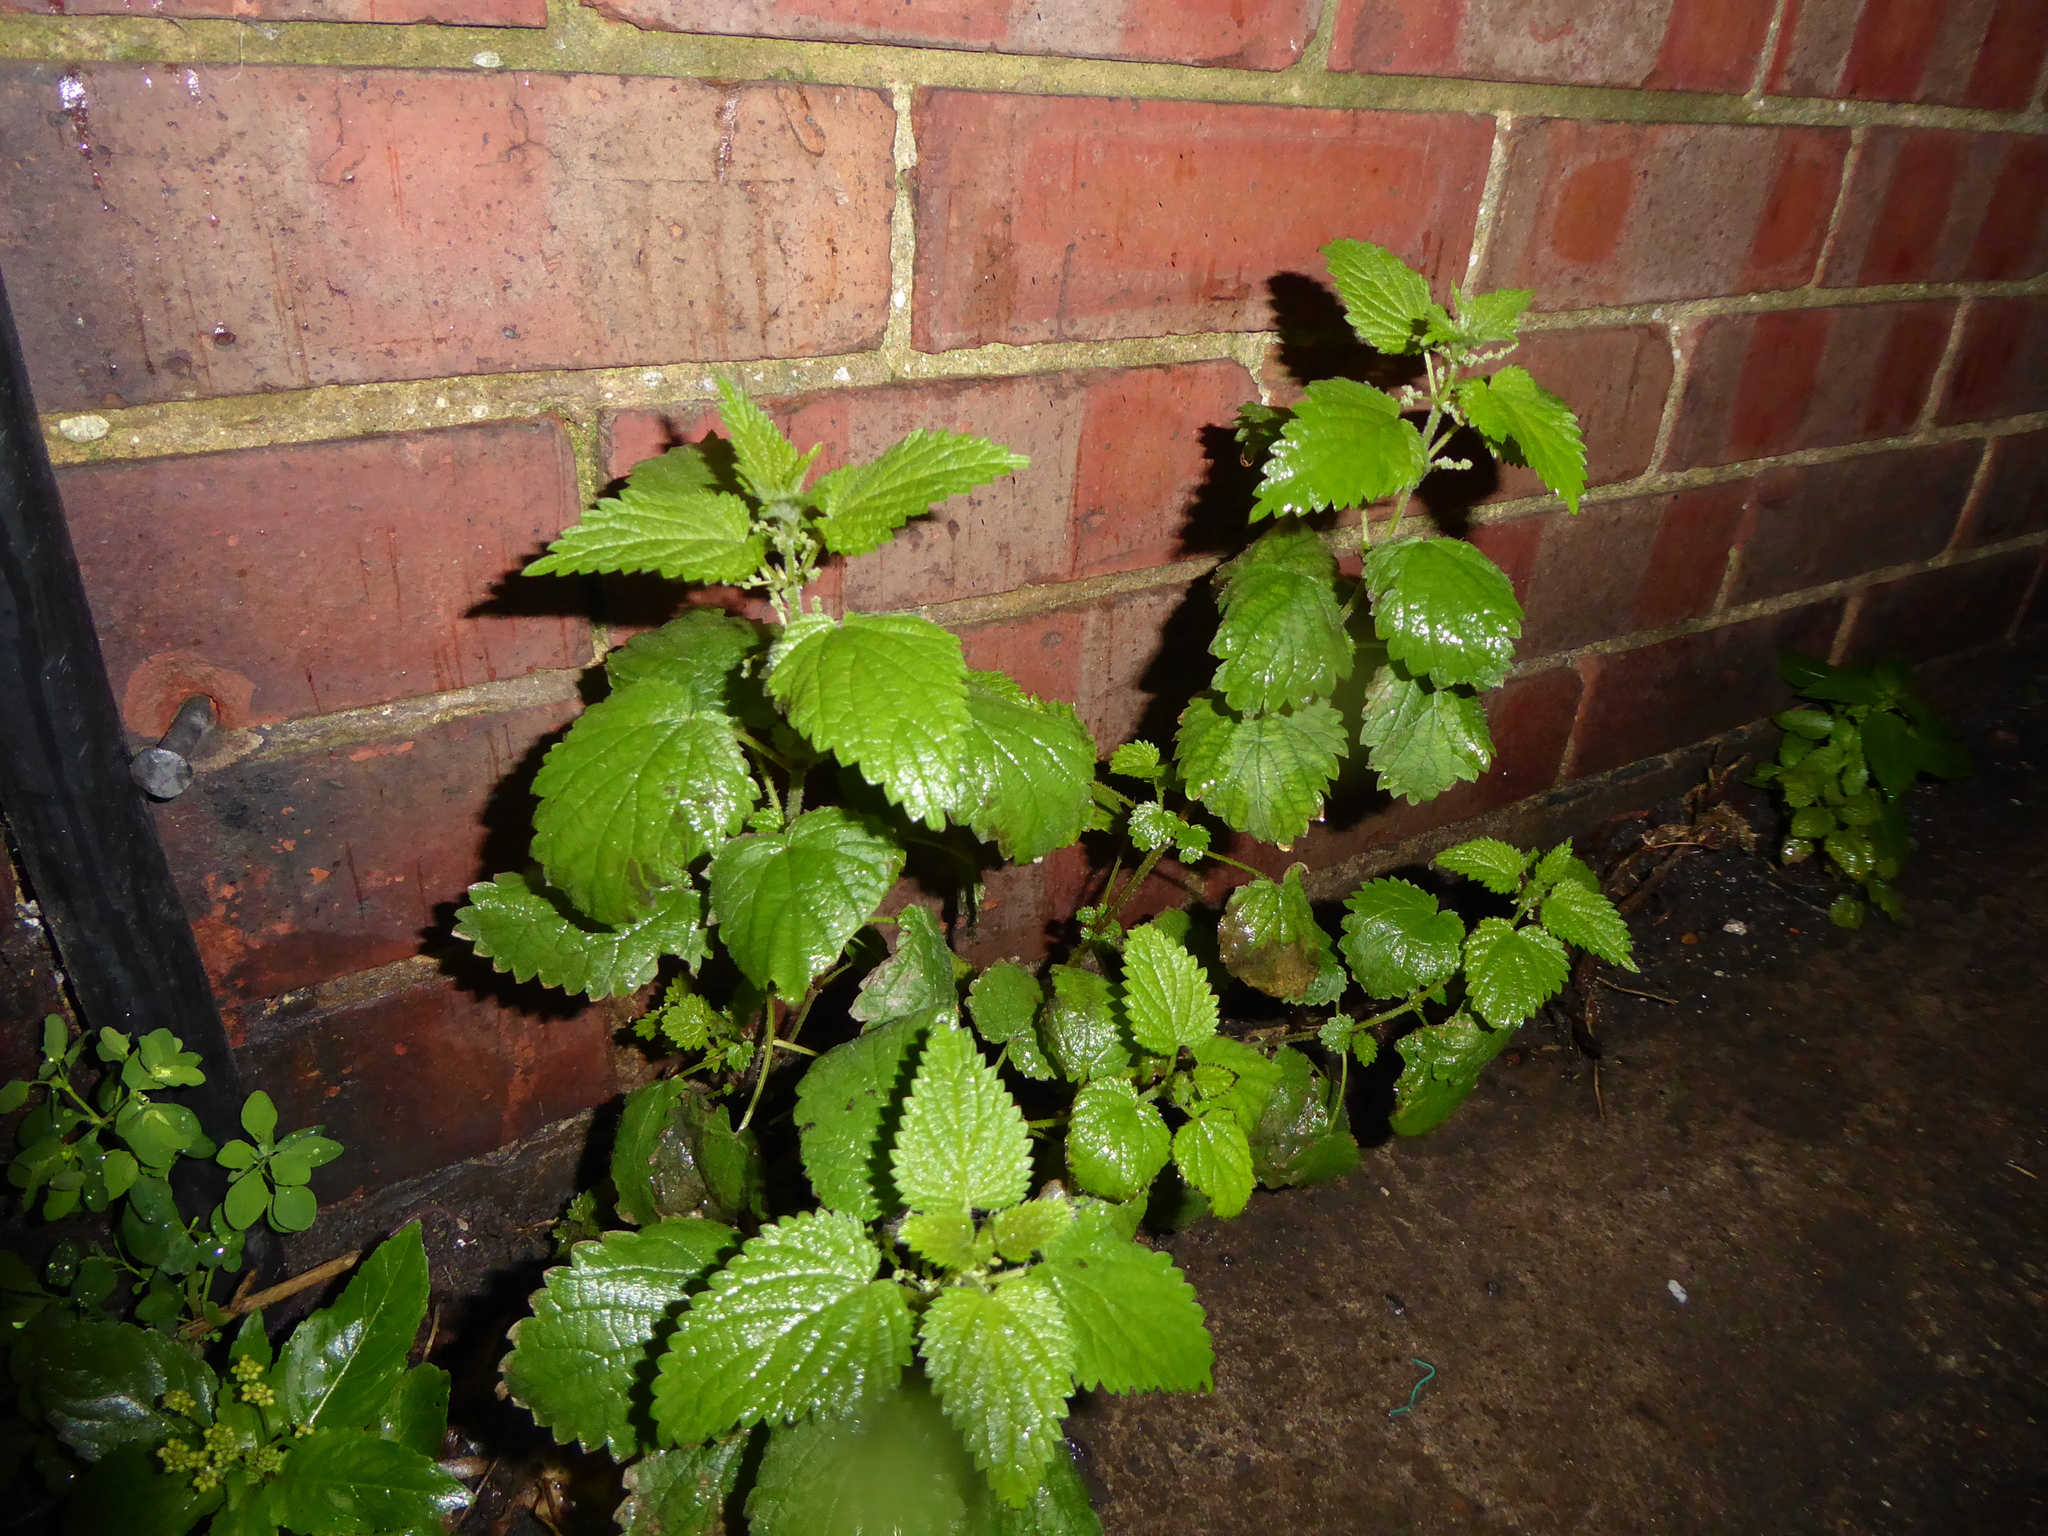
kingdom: Plantae
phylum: Tracheophyta
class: Magnoliopsida
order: Rosales
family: Urticaceae
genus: Urtica
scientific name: Urtica dioica
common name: Common nettle
